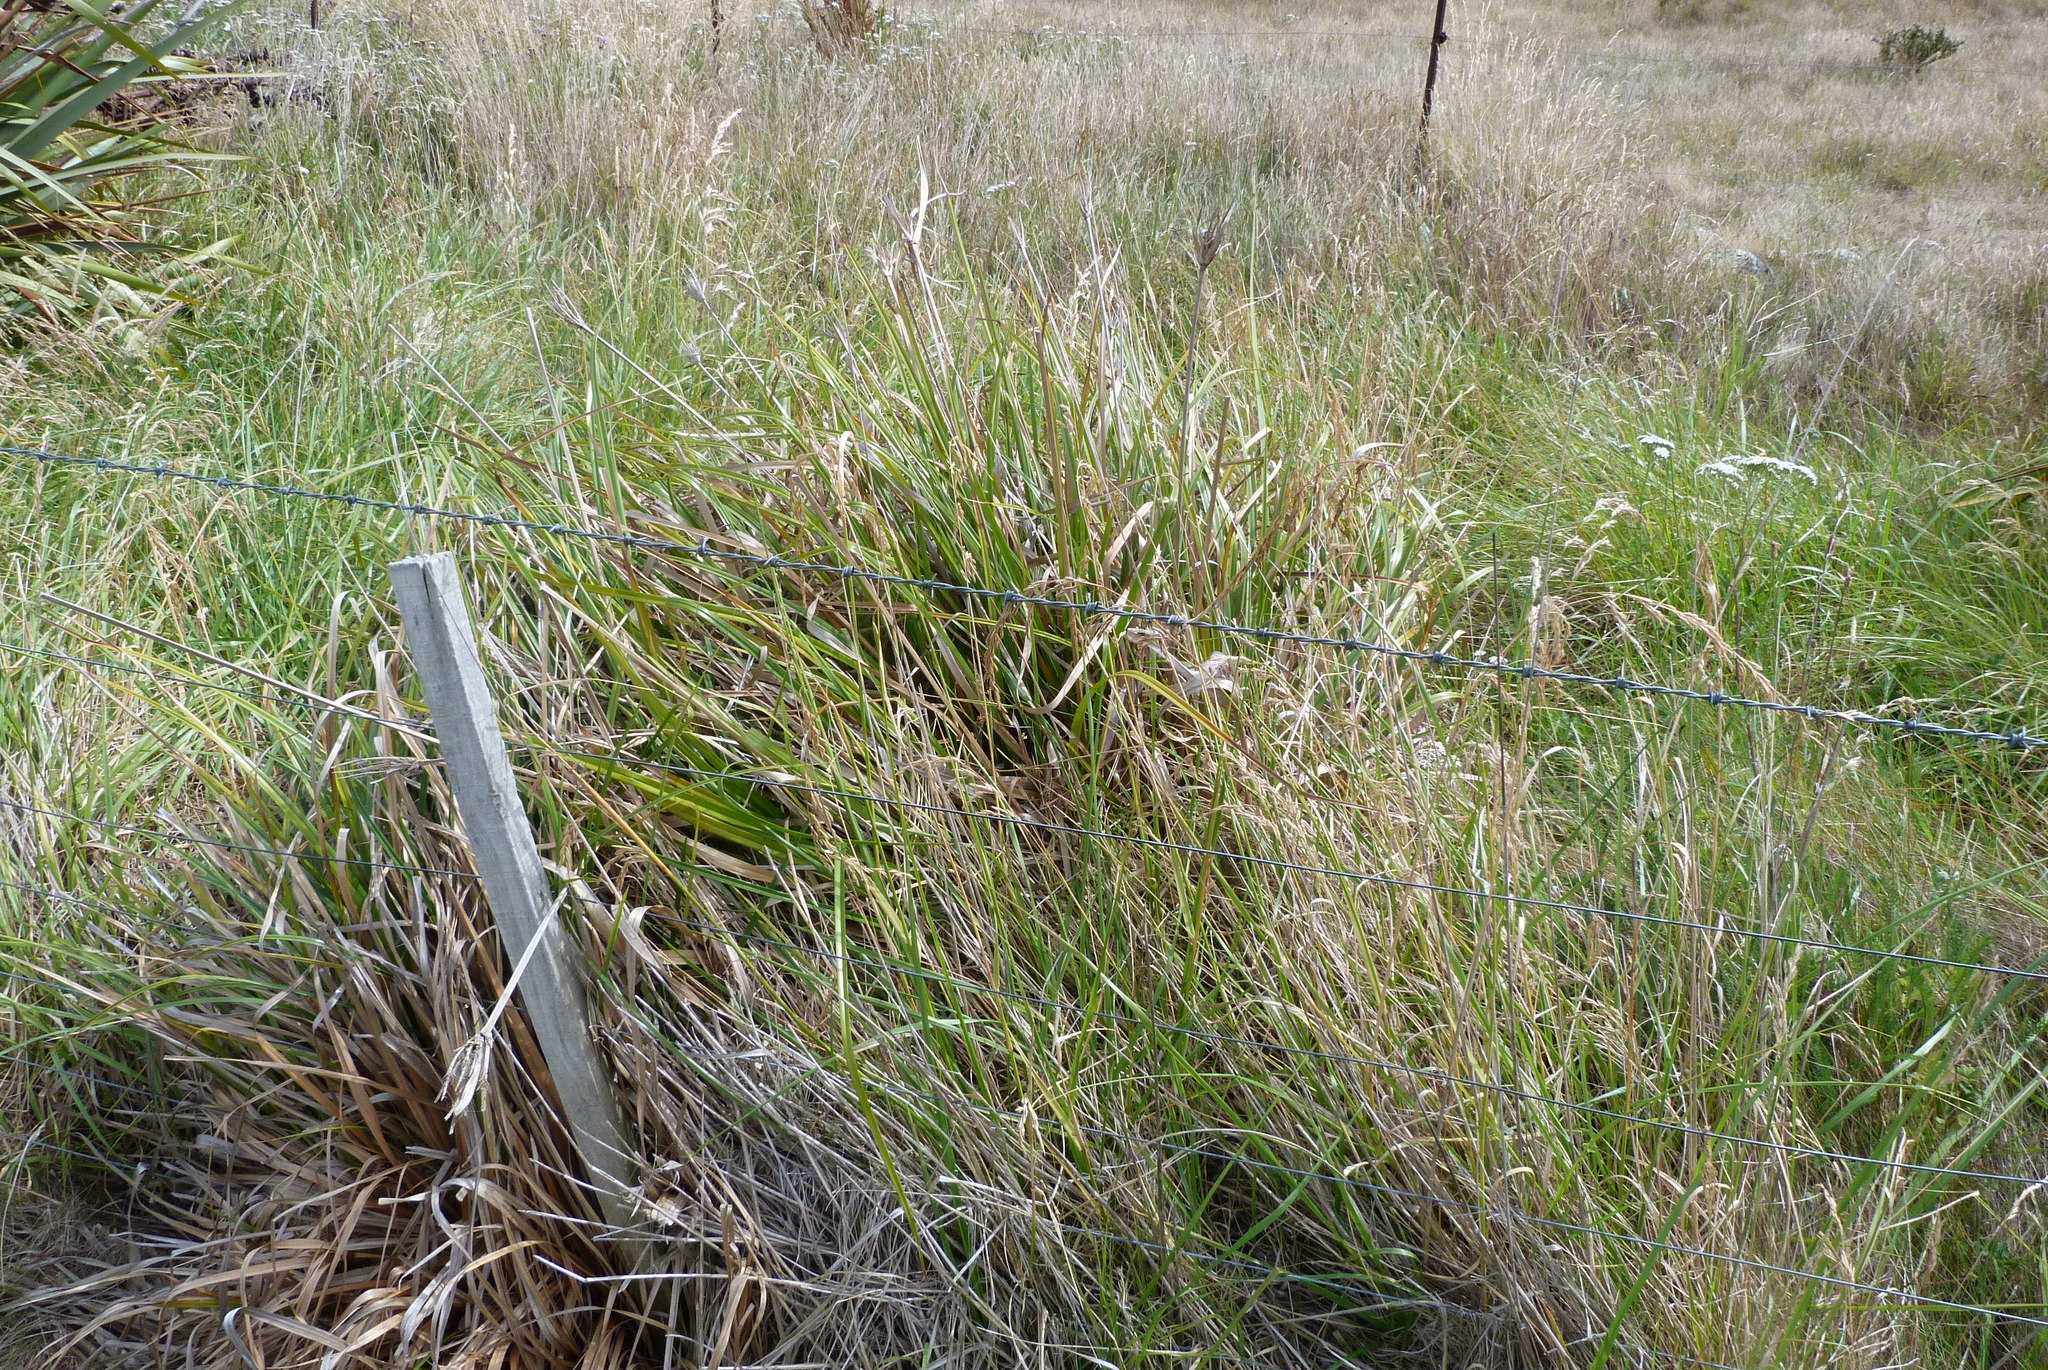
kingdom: Plantae
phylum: Tracheophyta
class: Liliopsida
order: Poales
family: Cyperaceae
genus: Cyperus
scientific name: Cyperus ustulatus
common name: Giant umbrella-sedge
